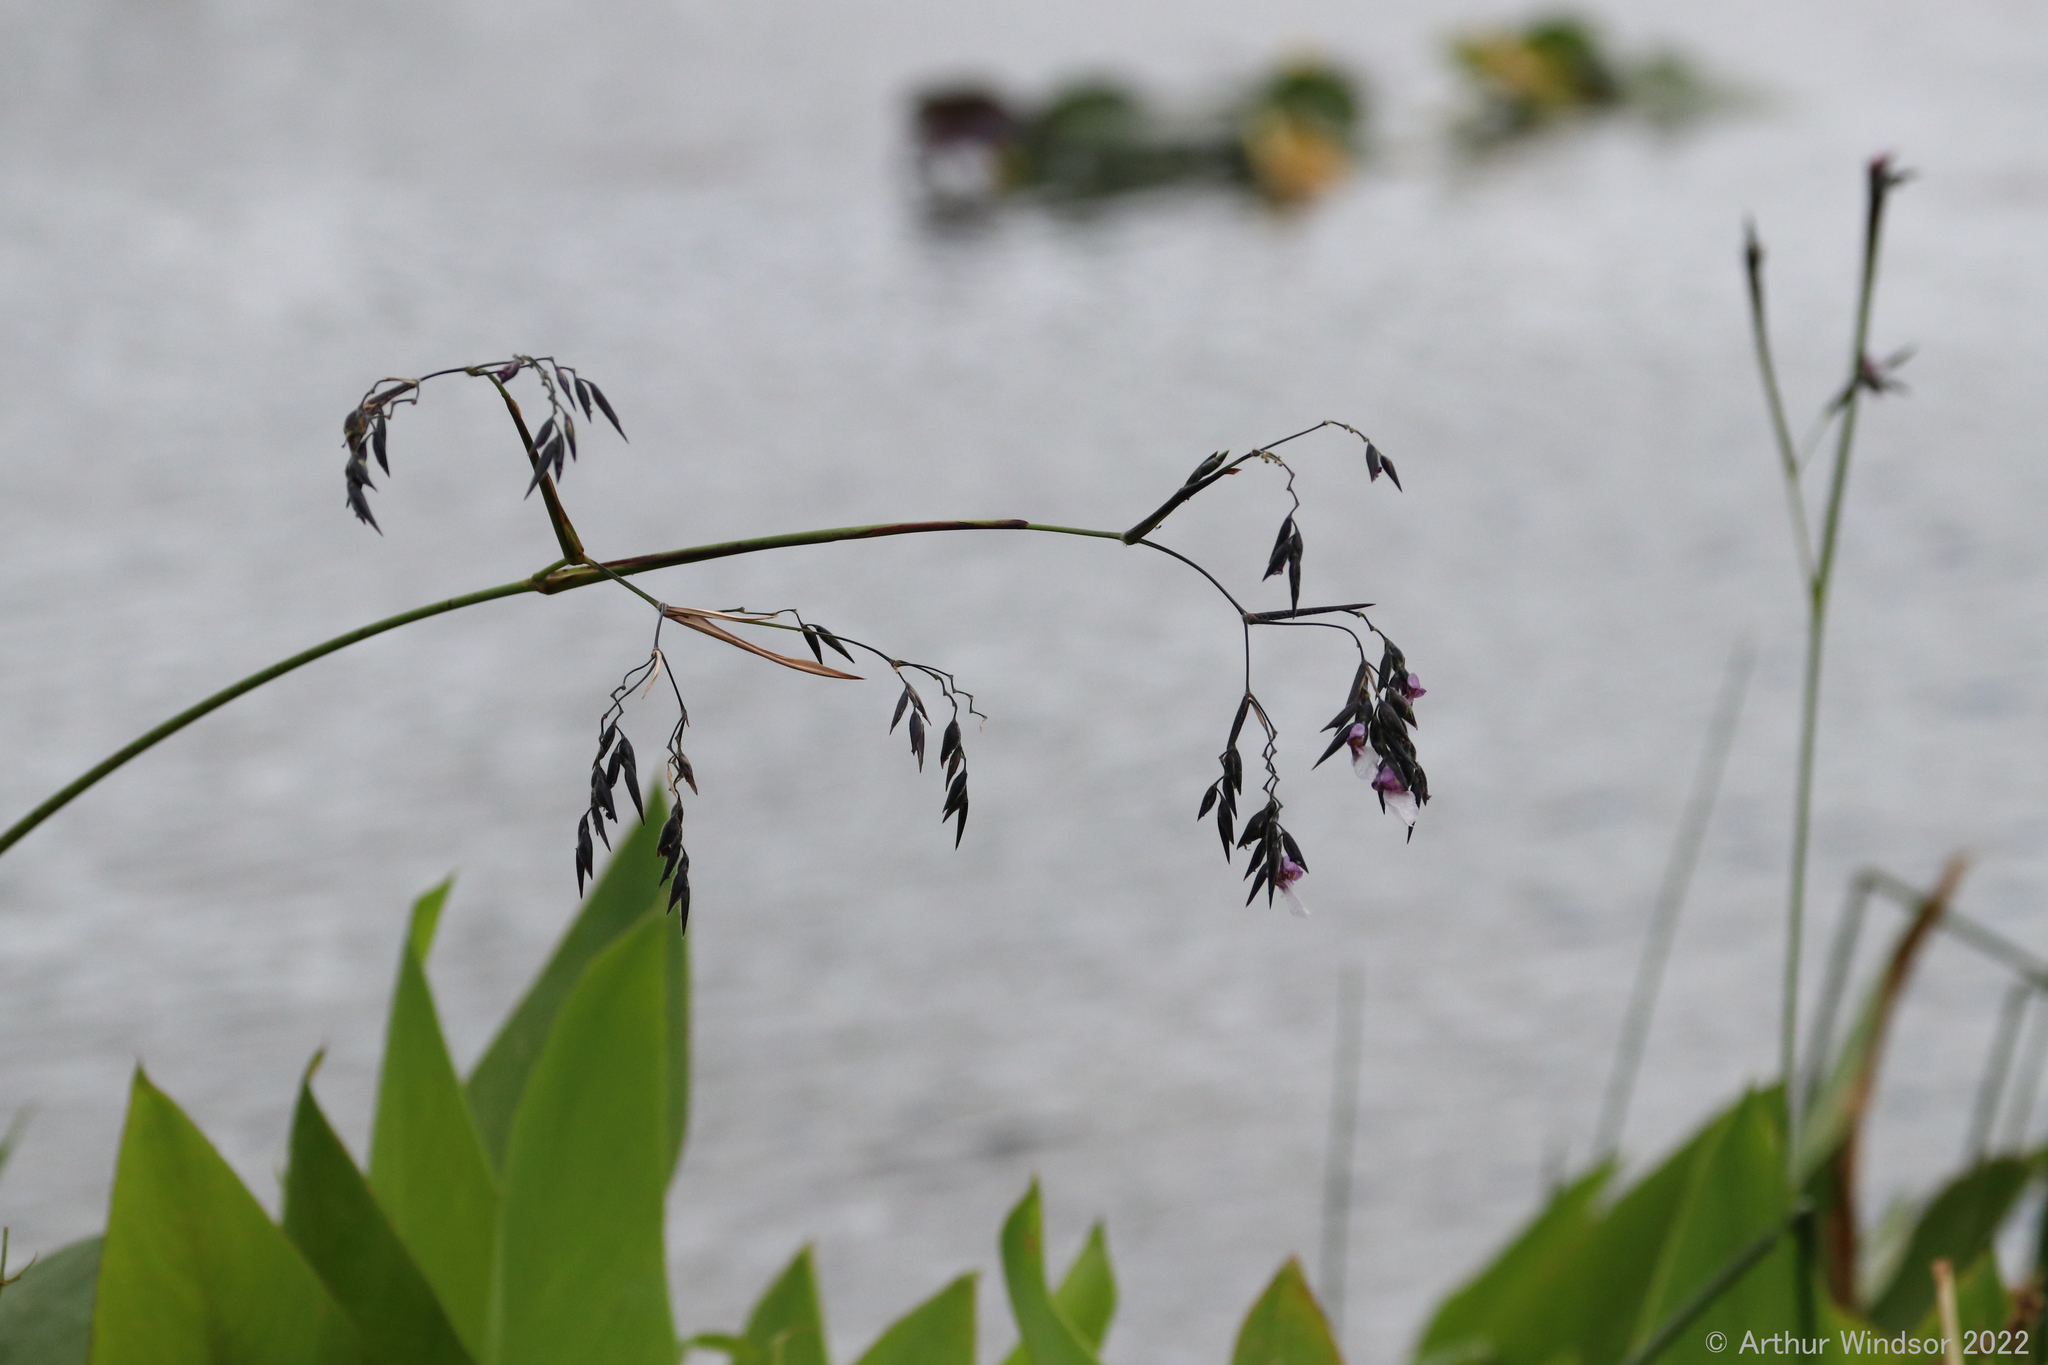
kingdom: Plantae
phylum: Tracheophyta
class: Liliopsida
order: Zingiberales
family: Marantaceae
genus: Thalia
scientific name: Thalia geniculata
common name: Arrowroot
